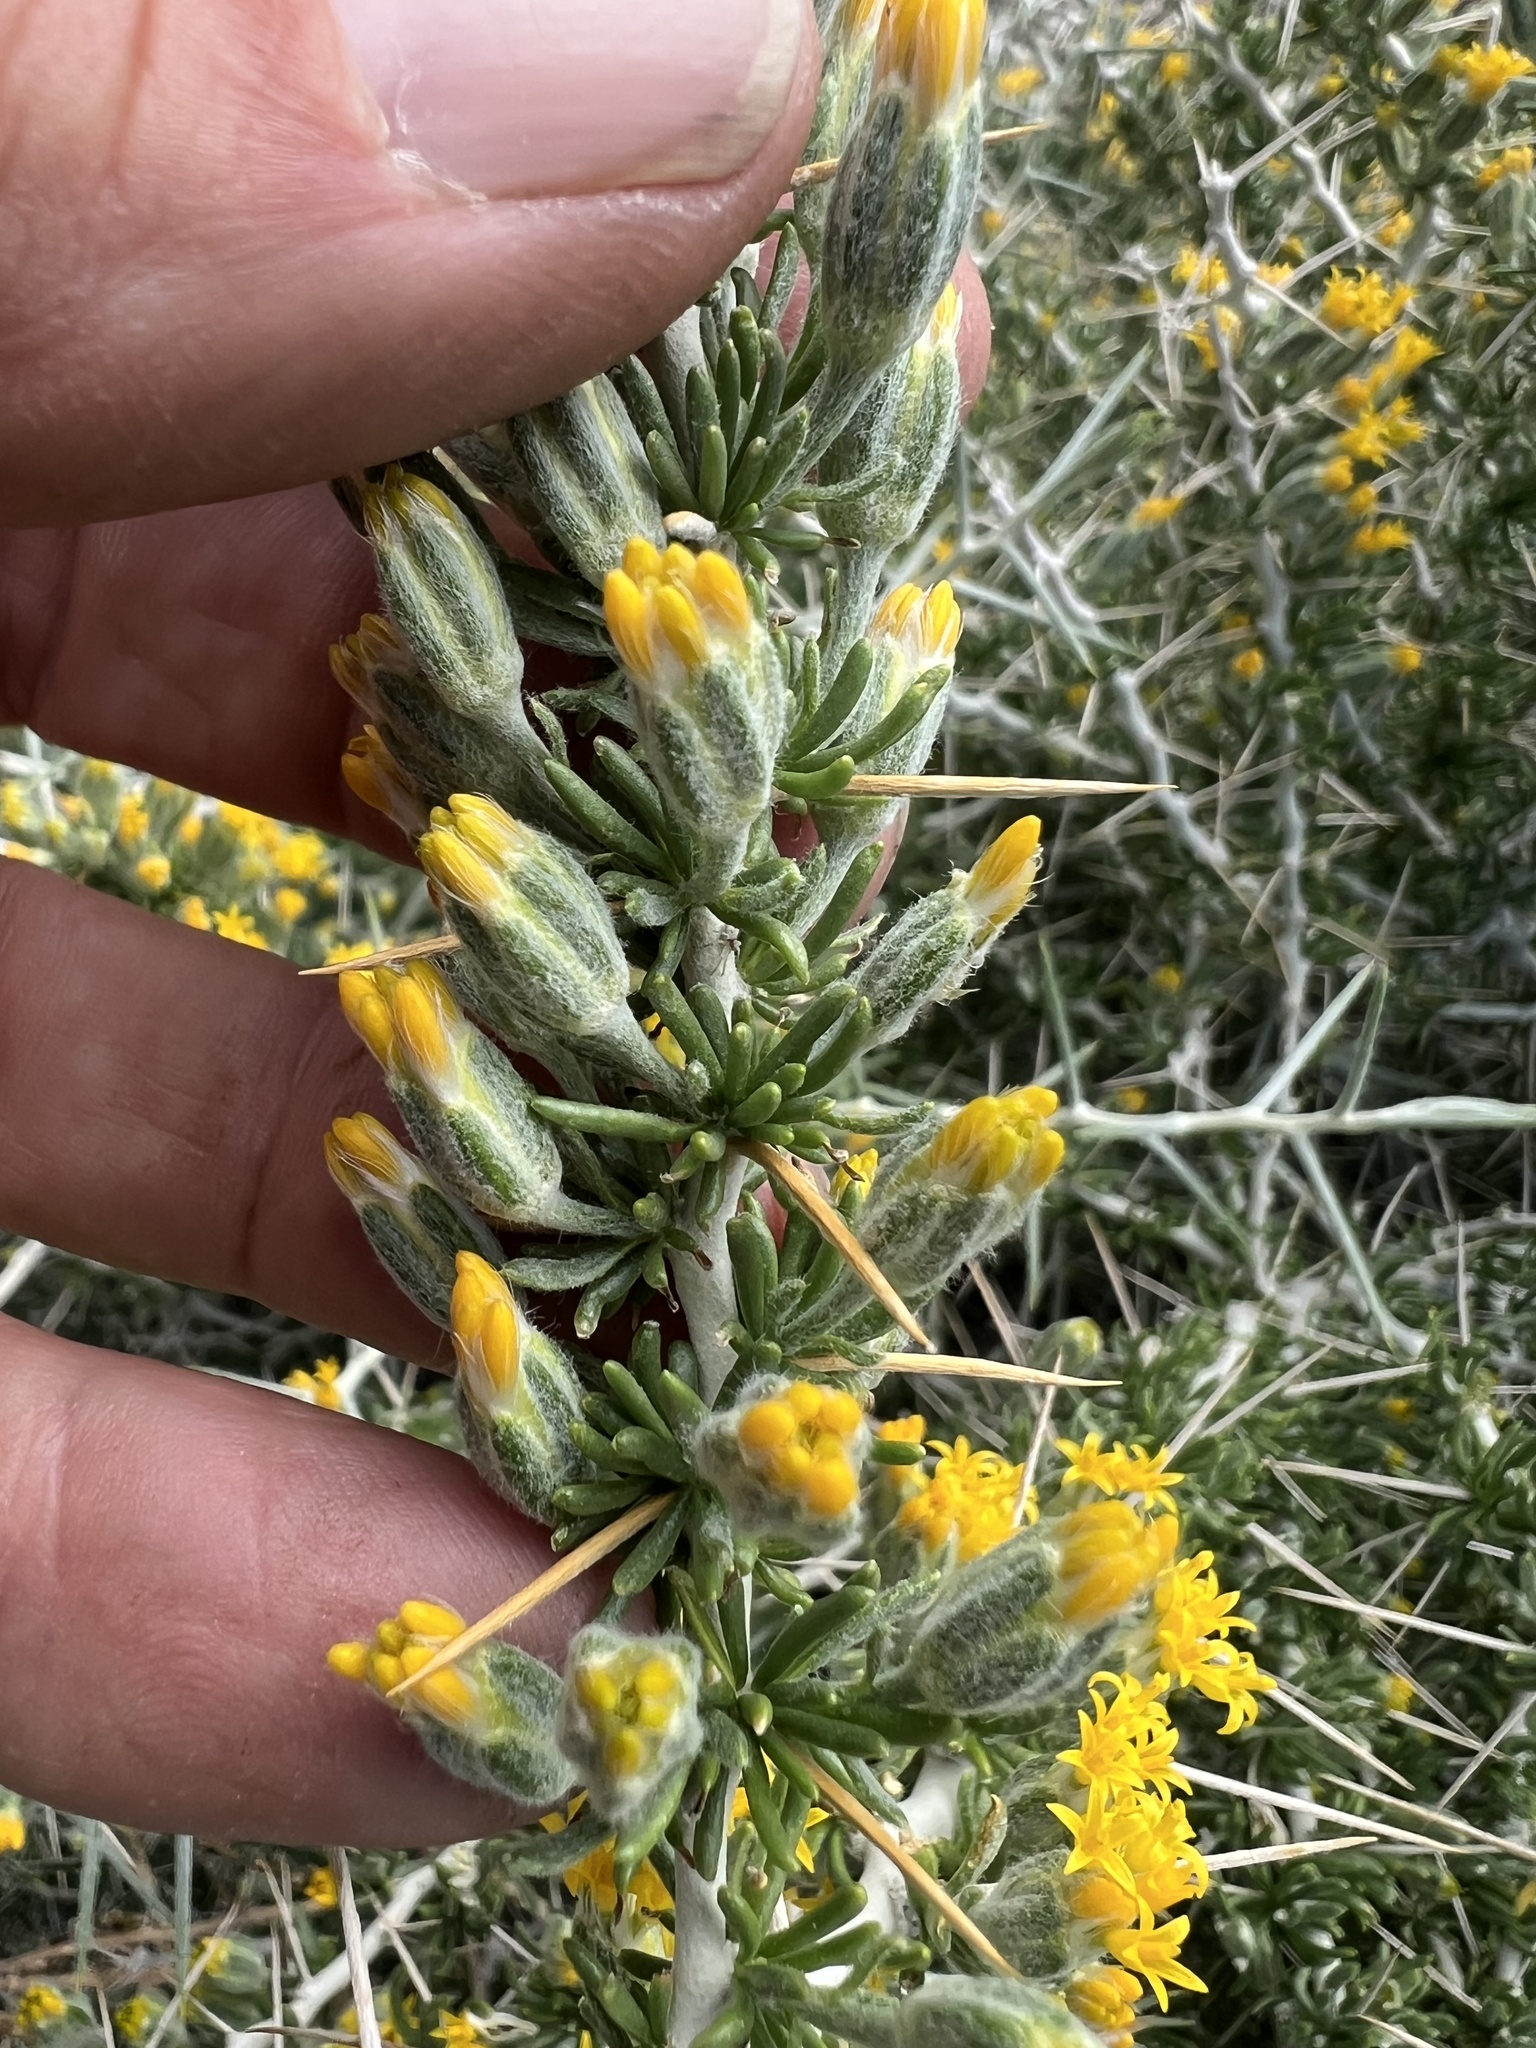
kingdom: Plantae
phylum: Tracheophyta
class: Magnoliopsida
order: Asterales
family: Asteraceae
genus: Tetradymia
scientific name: Tetradymia axillaris
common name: Long-spine horsebrush
